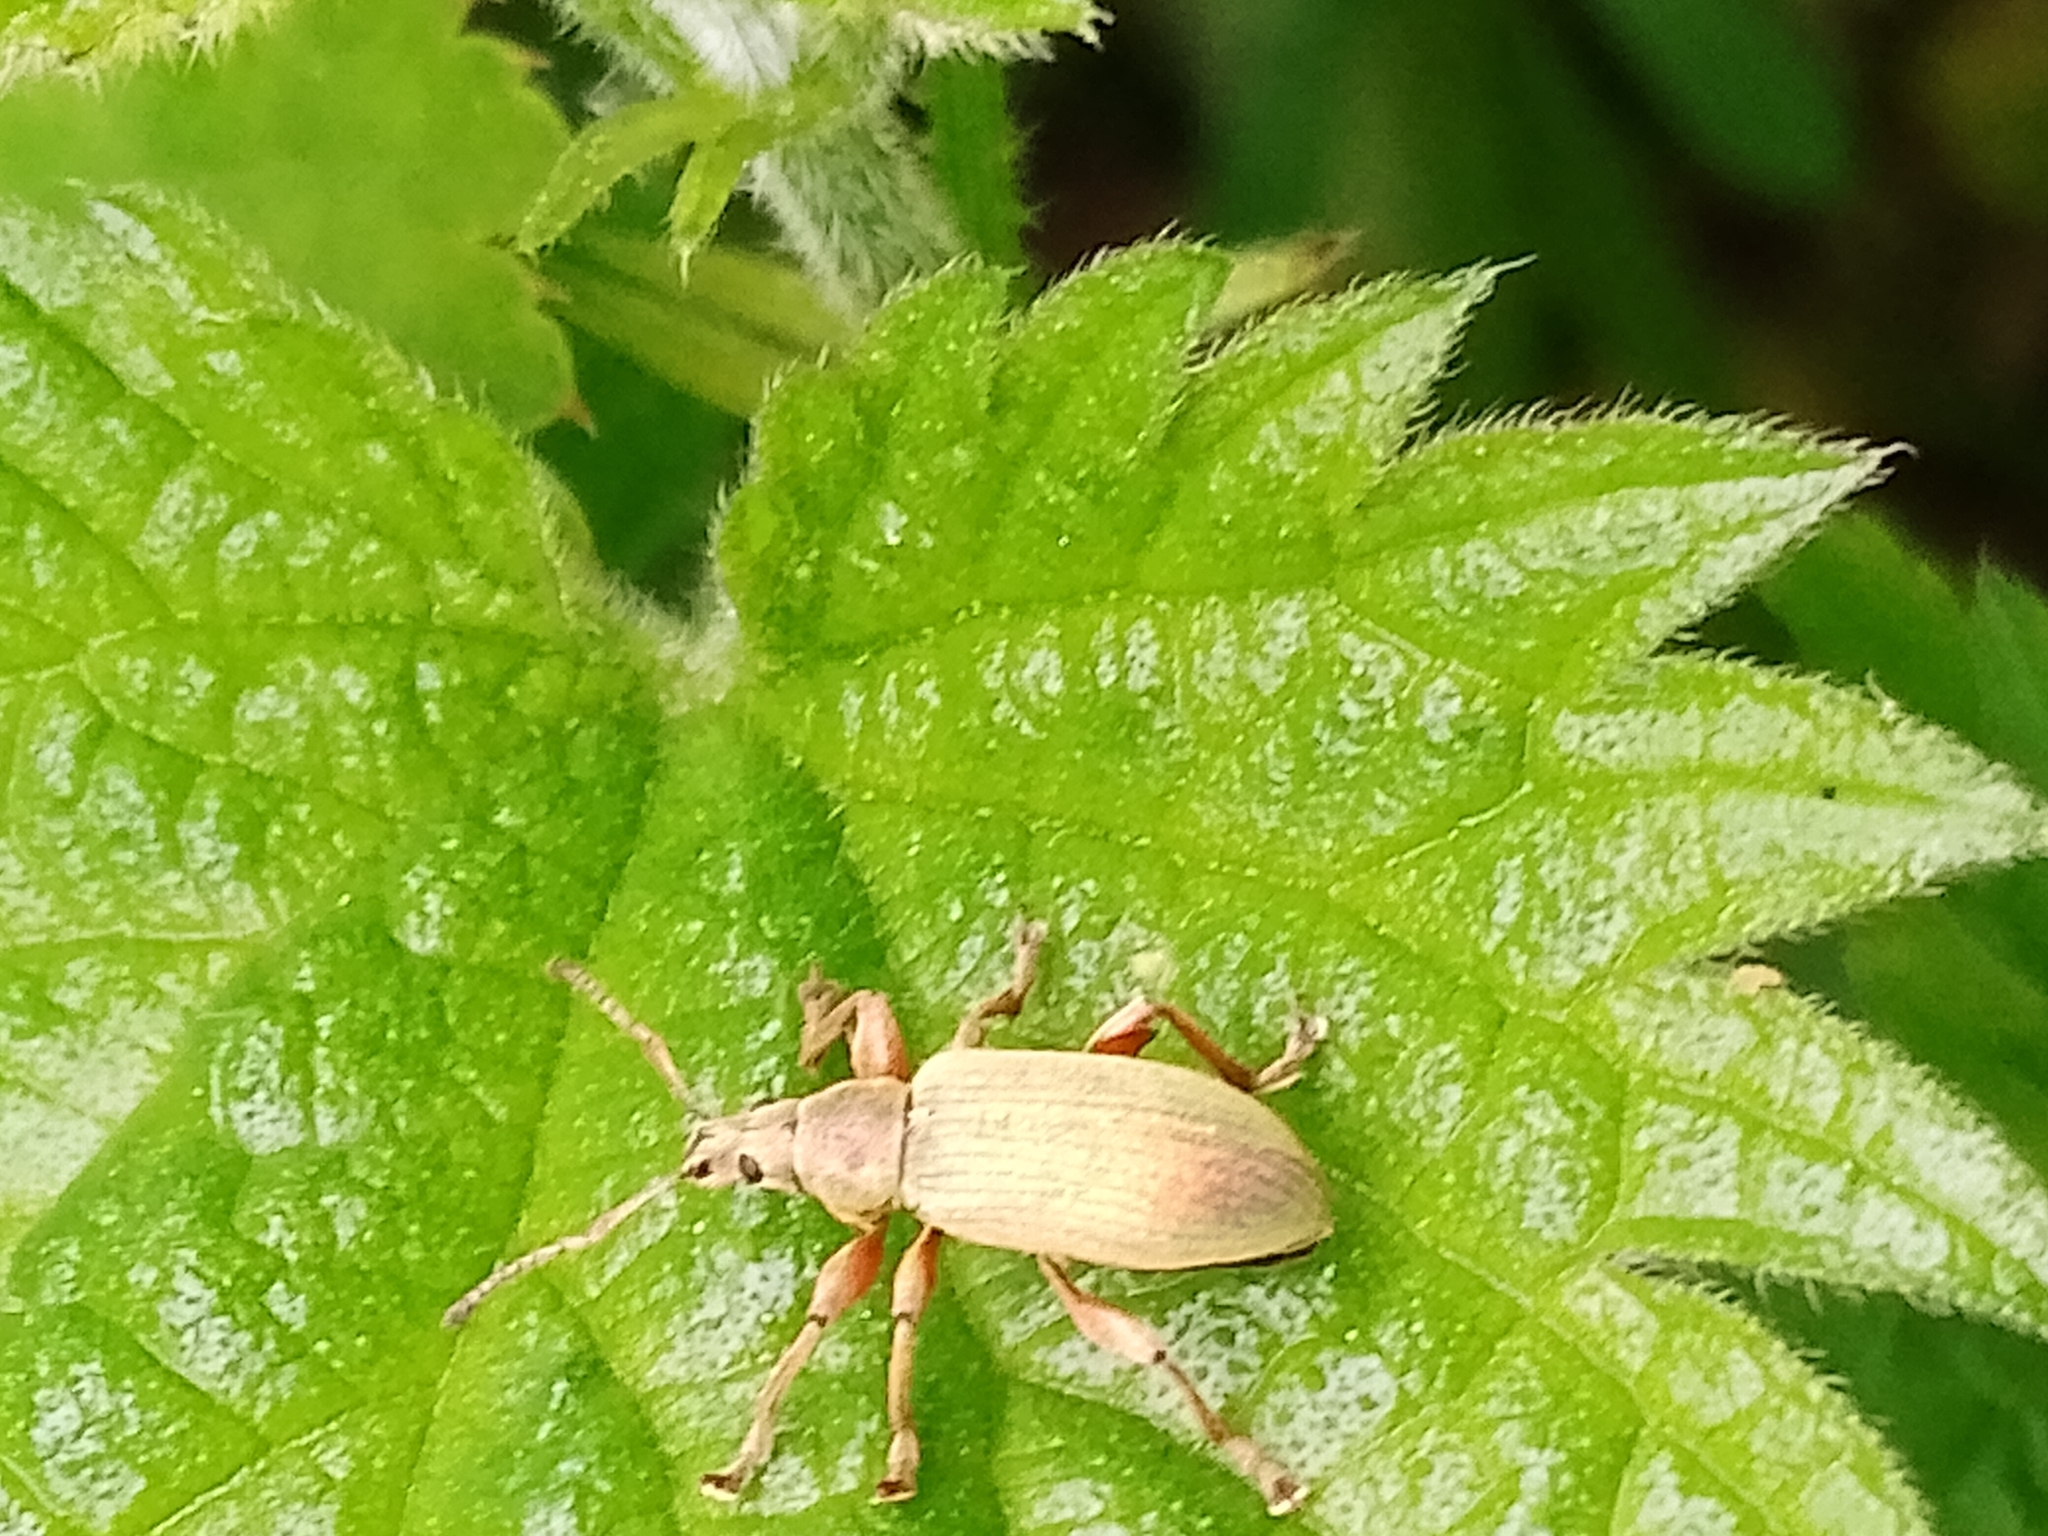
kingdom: Animalia
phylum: Arthropoda
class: Insecta
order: Coleoptera
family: Curculionidae
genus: Phyllobius
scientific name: Phyllobius pomaceus
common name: Green nettle weevil
